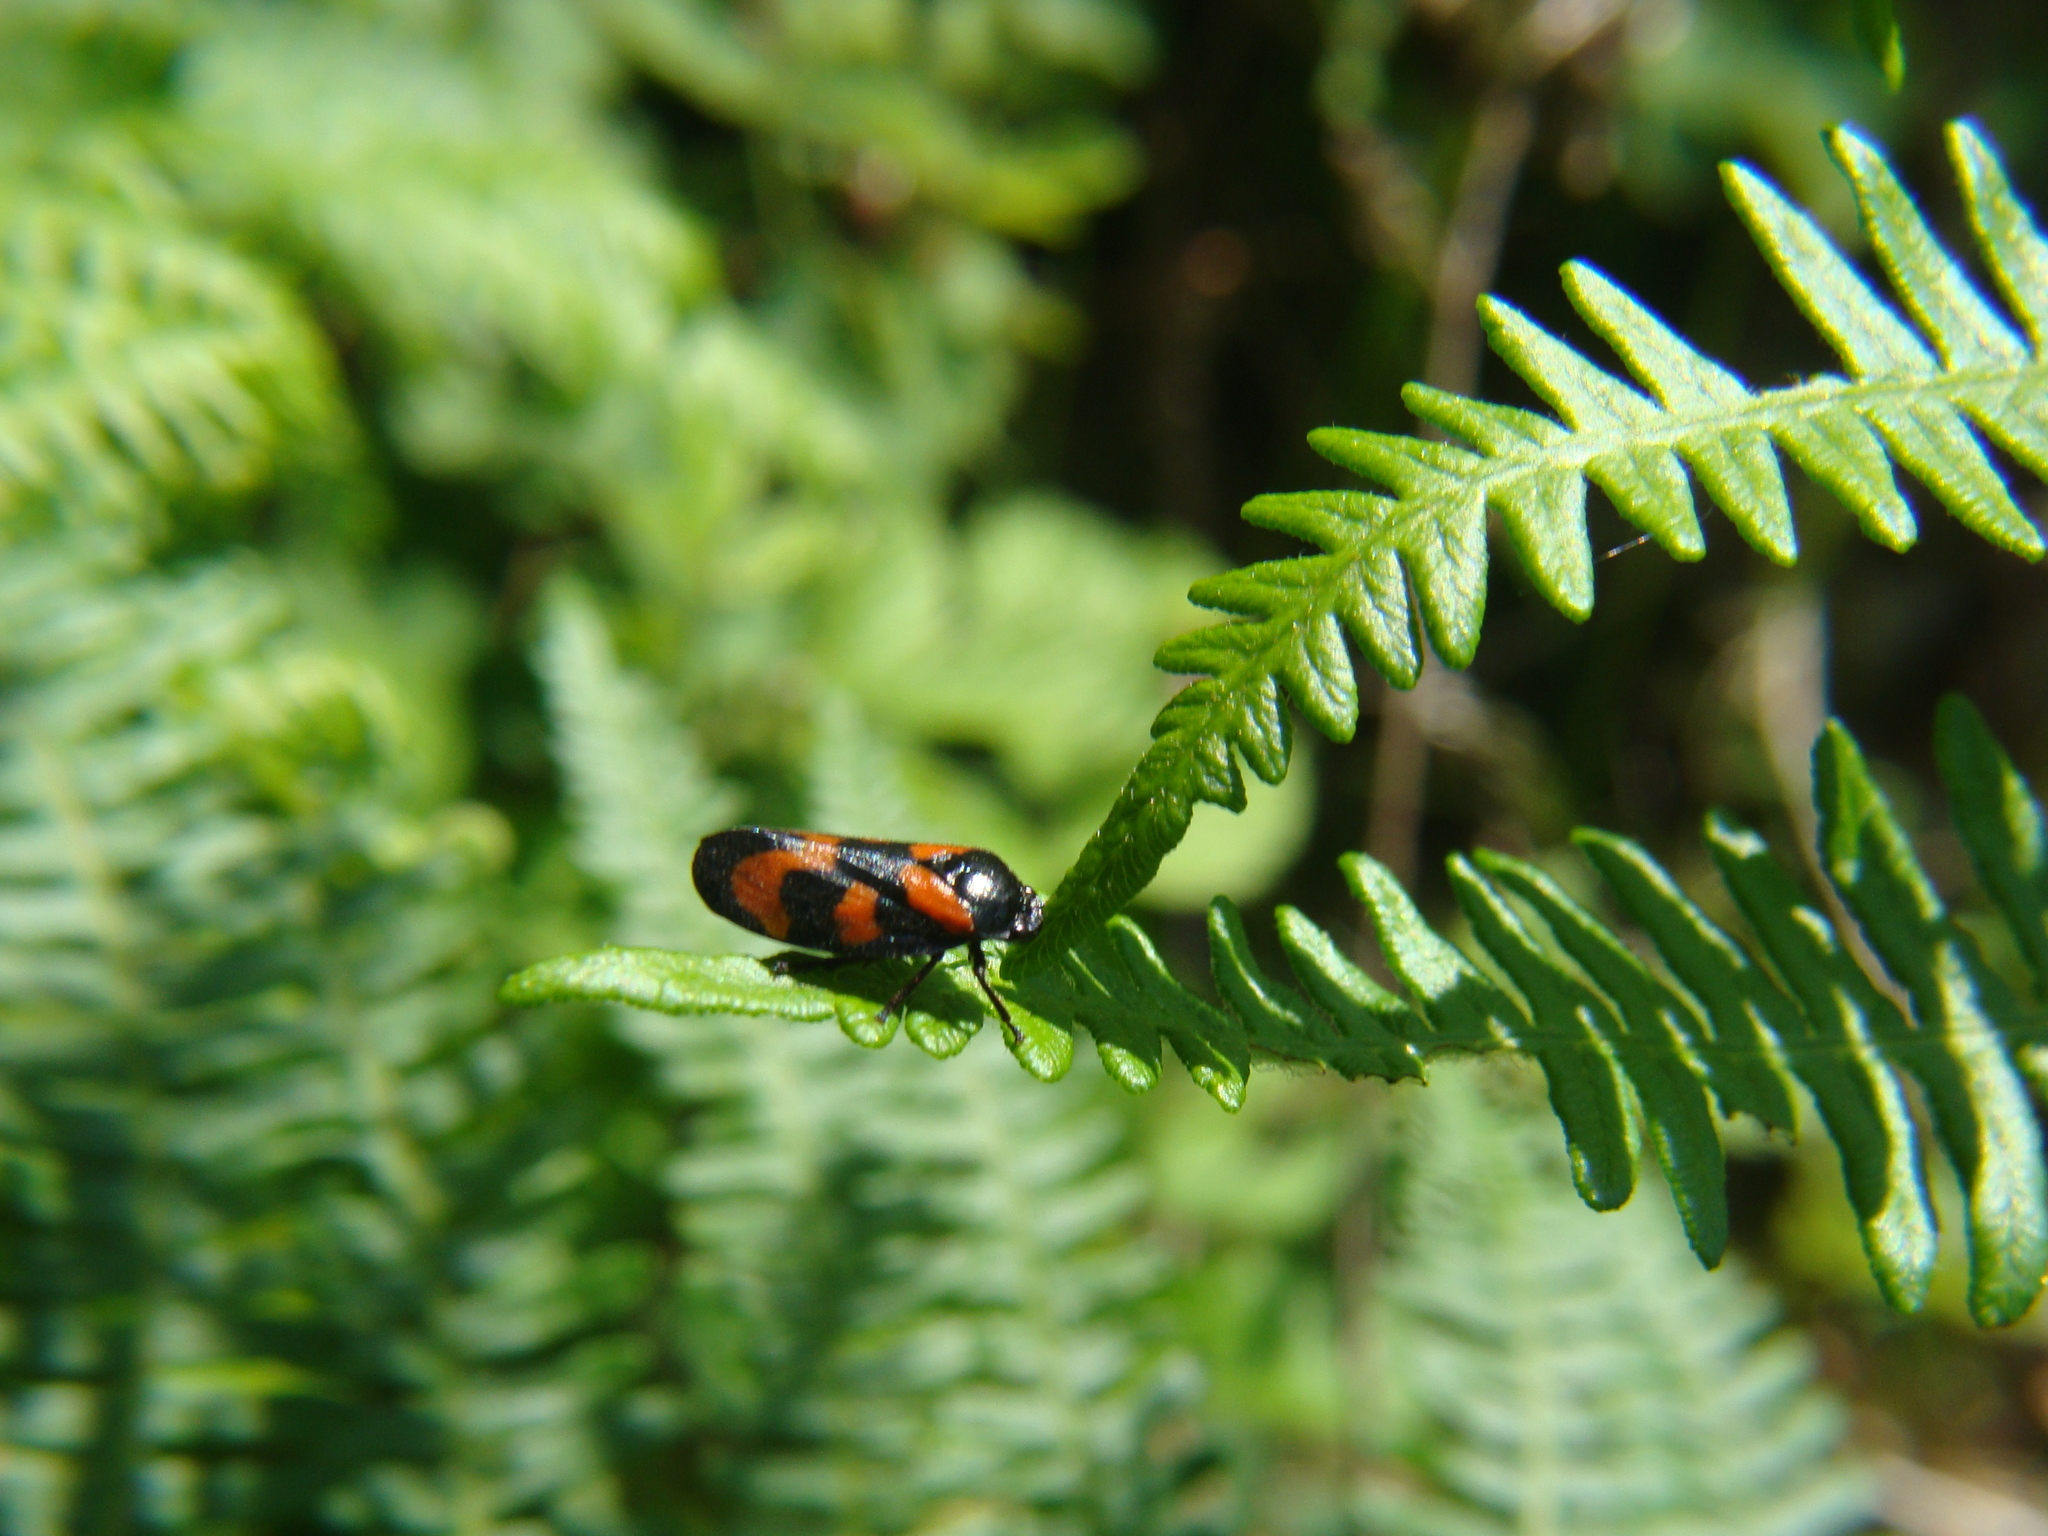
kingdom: Animalia
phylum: Arthropoda
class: Insecta
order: Hemiptera
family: Cercopidae
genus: Cercopis
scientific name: Cercopis vulnerata
